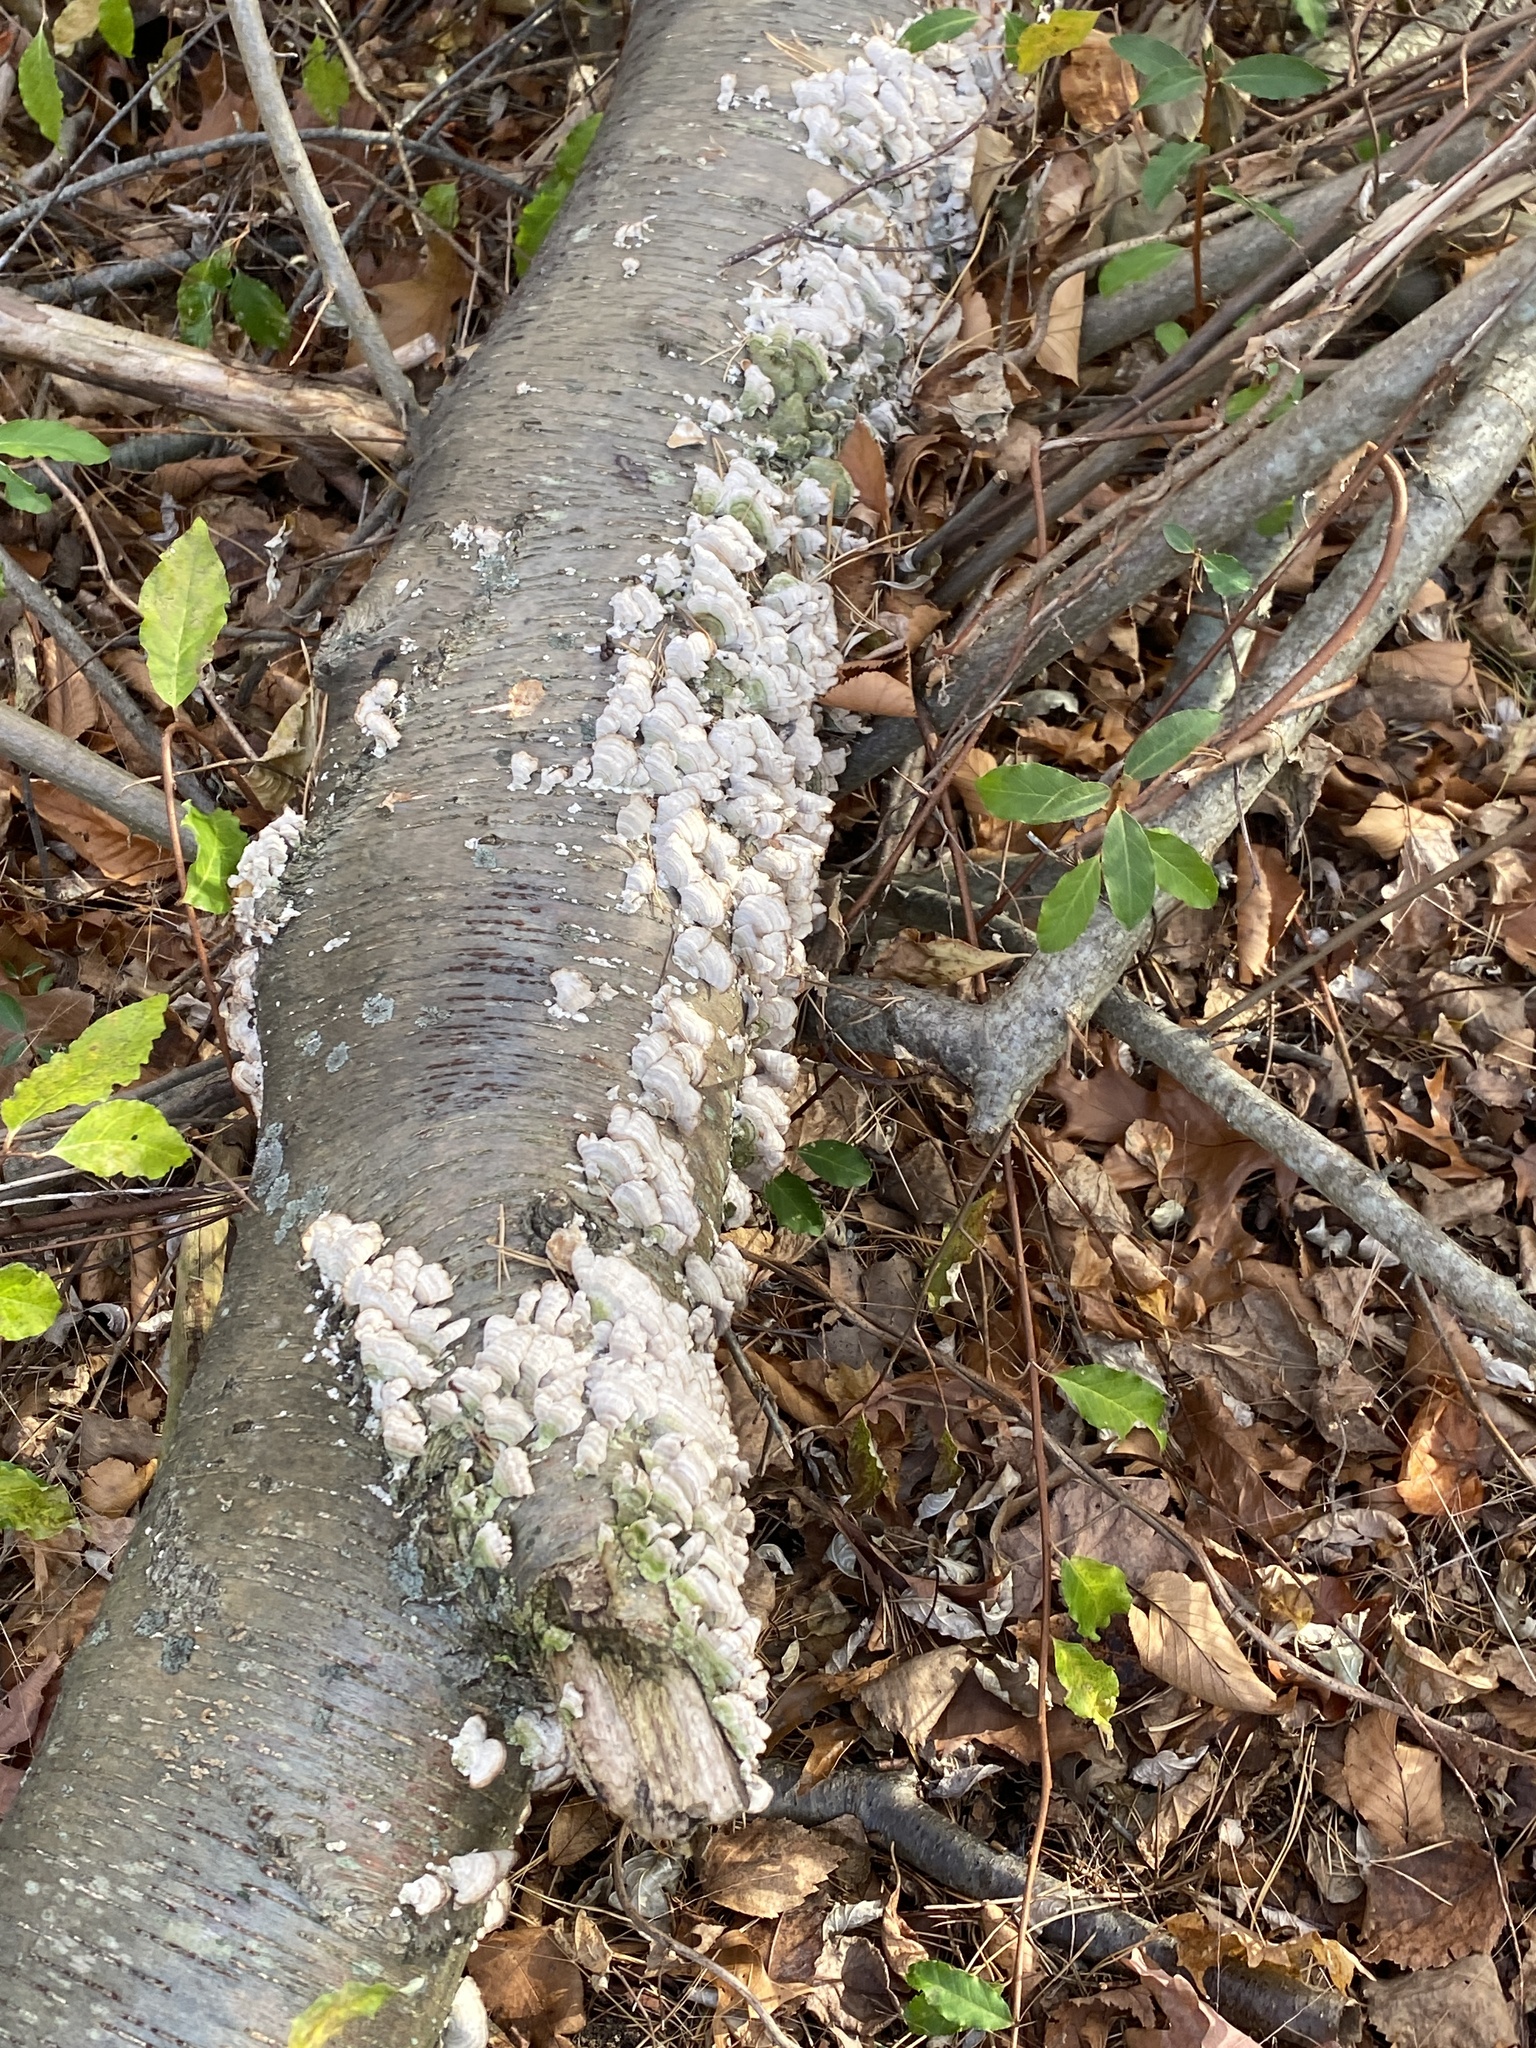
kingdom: Fungi
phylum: Basidiomycota
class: Agaricomycetes
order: Hymenochaetales
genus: Trichaptum
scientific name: Trichaptum biforme
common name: Violet-toothed polypore
